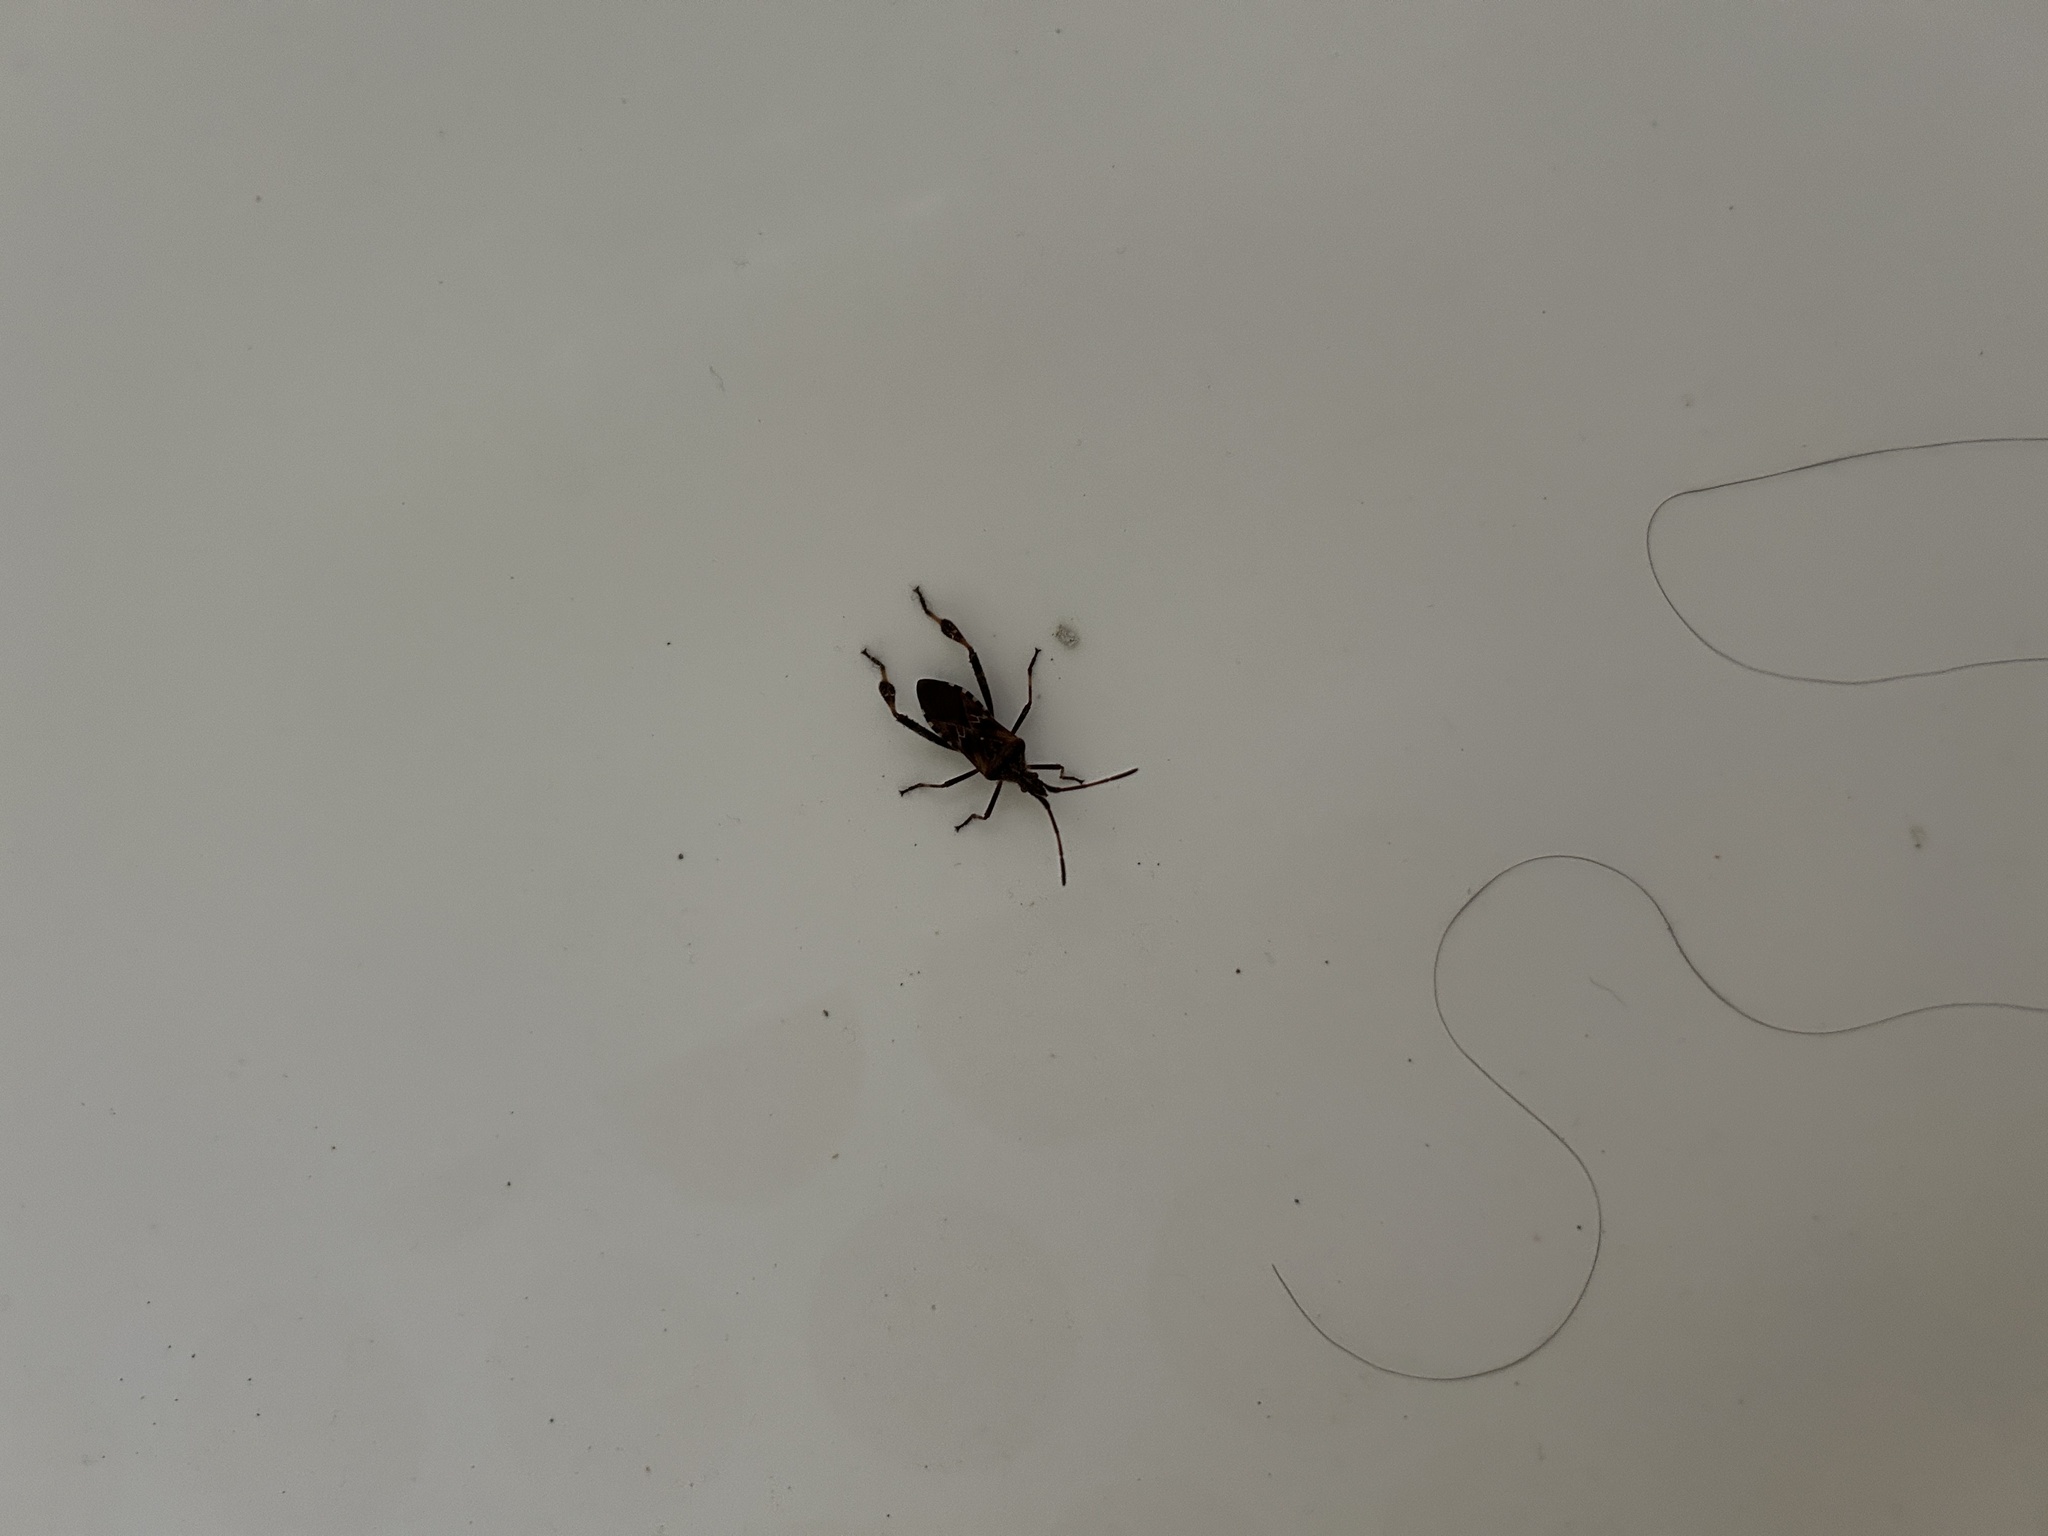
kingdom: Animalia
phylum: Arthropoda
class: Insecta
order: Hemiptera
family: Coreidae
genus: Leptoglossus
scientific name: Leptoglossus occidentalis
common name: Western conifer-seed bug
